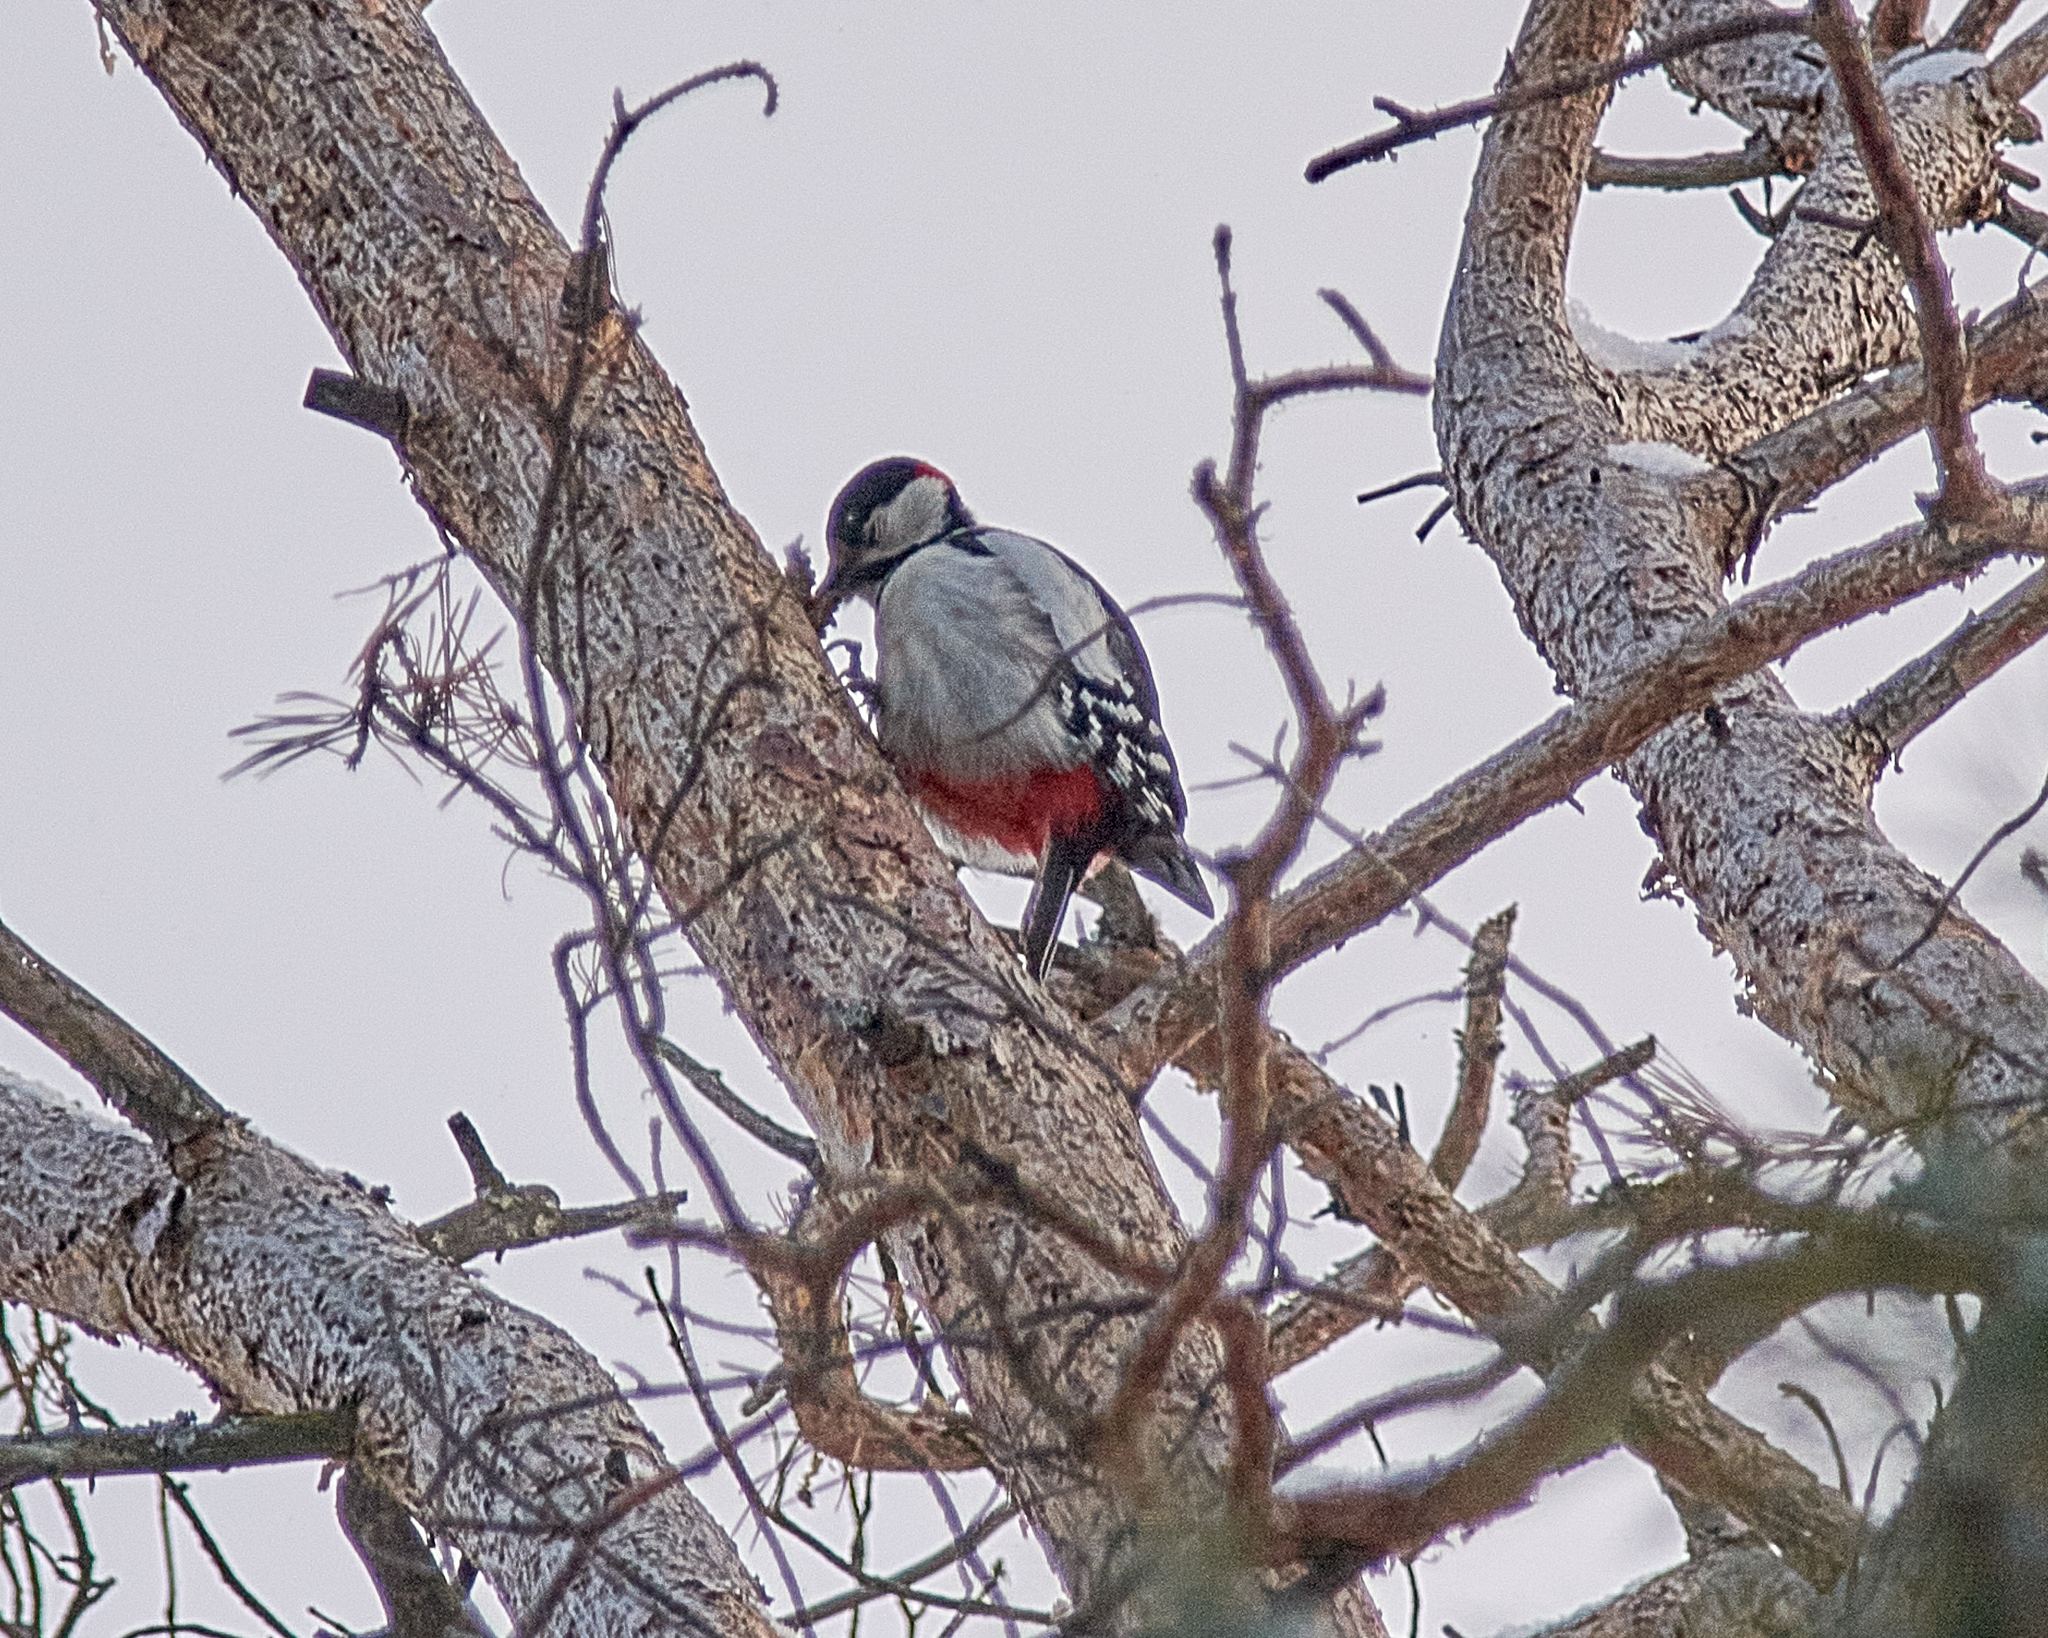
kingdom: Animalia
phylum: Chordata
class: Aves
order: Piciformes
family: Picidae
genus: Dendrocopos
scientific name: Dendrocopos major
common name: Great spotted woodpecker
